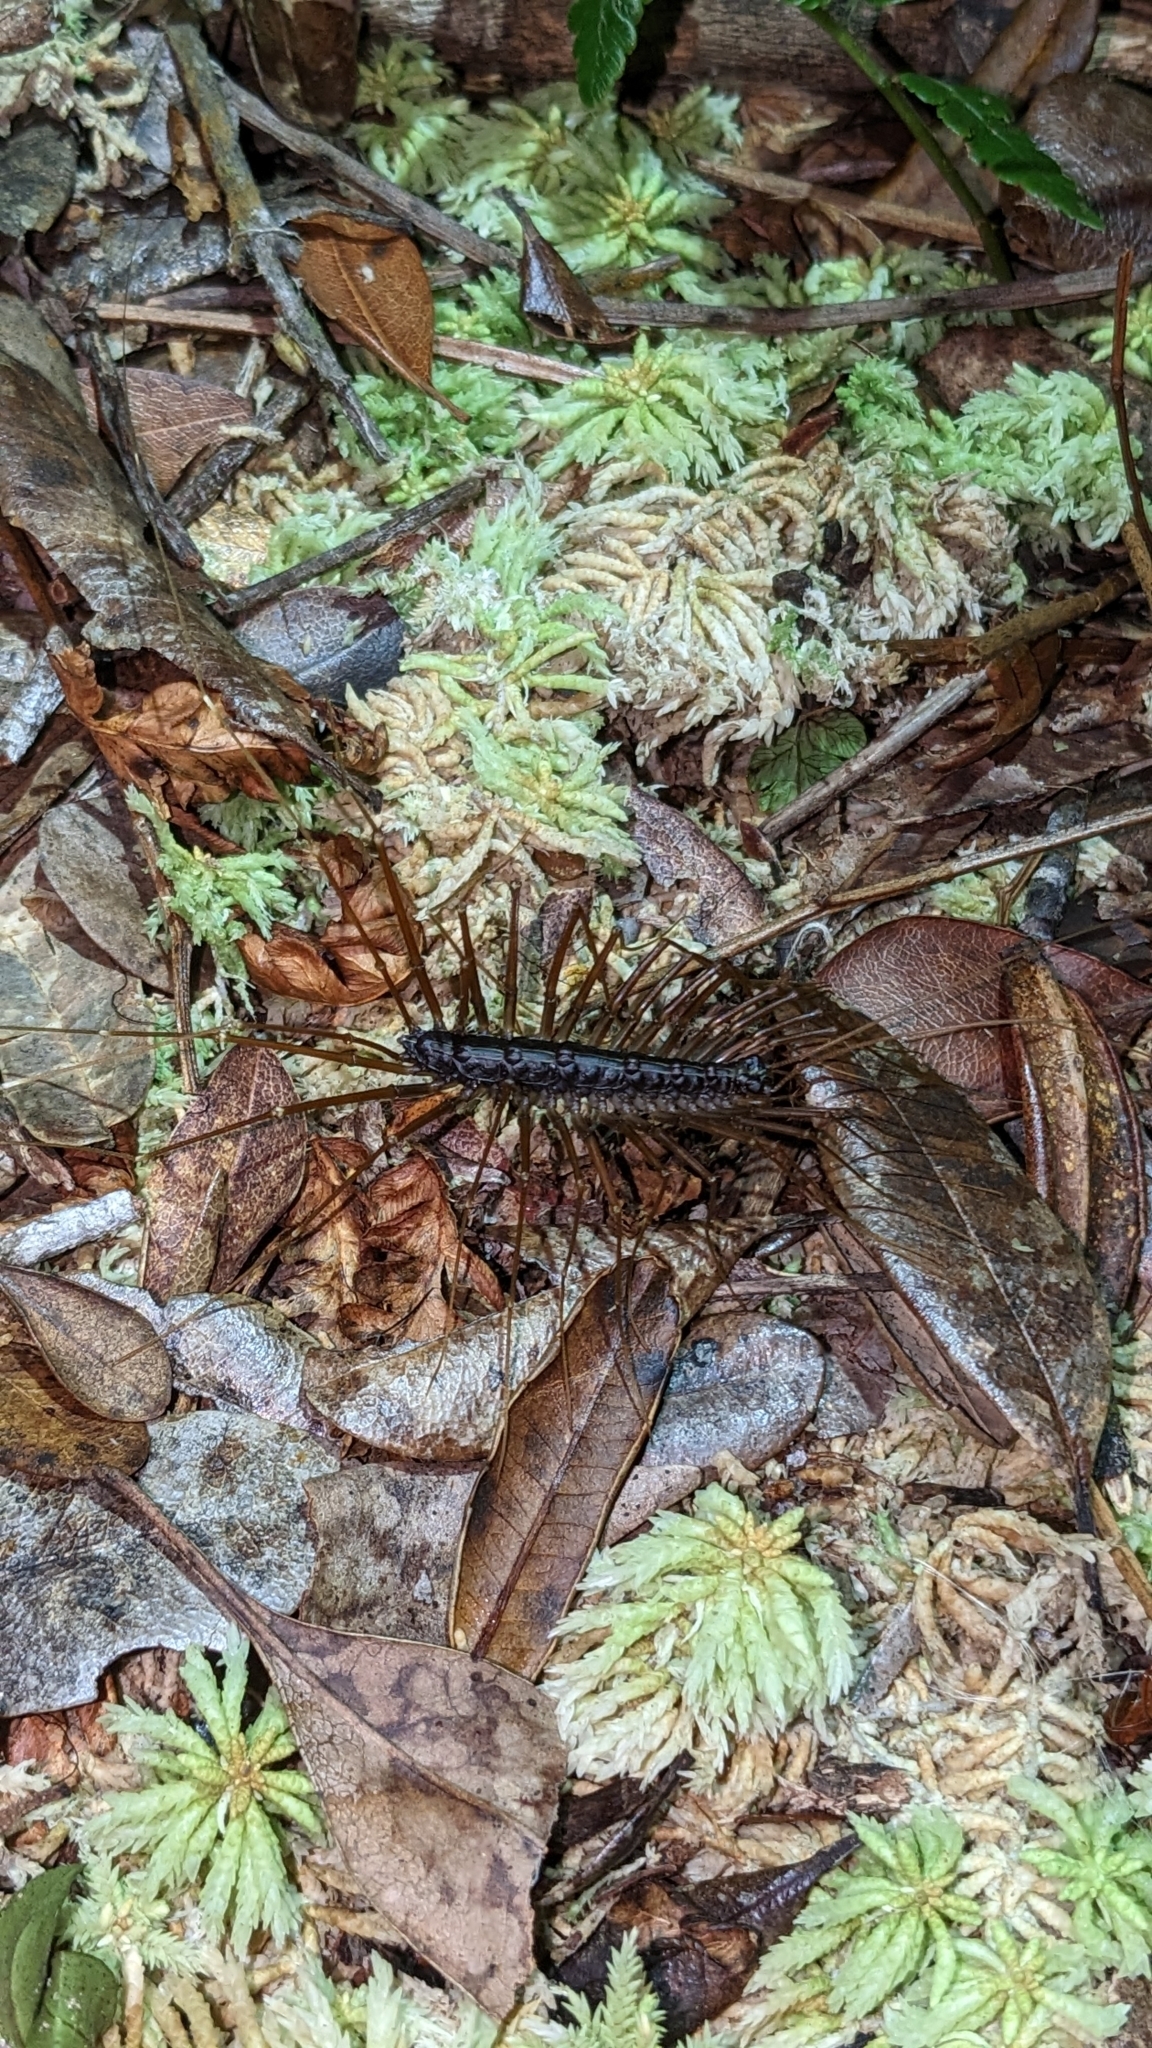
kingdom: Animalia
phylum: Arthropoda
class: Chilopoda
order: Scutigeromorpha
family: Pselliodidae
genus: Sphendononema
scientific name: Sphendononema guildingii
